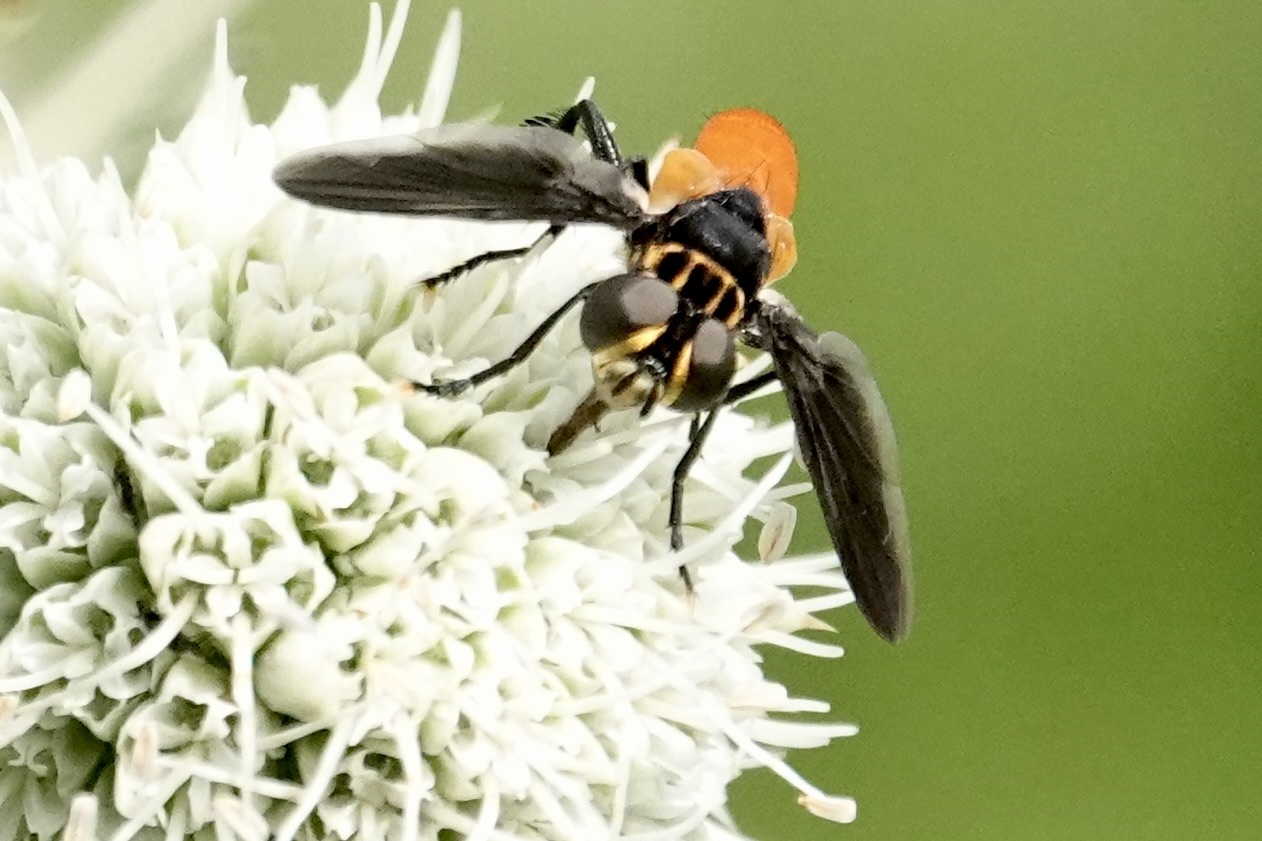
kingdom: Animalia
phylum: Arthropoda
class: Insecta
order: Diptera
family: Tachinidae
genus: Trichopoda
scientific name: Trichopoda pennipes
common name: Tachinid fly
